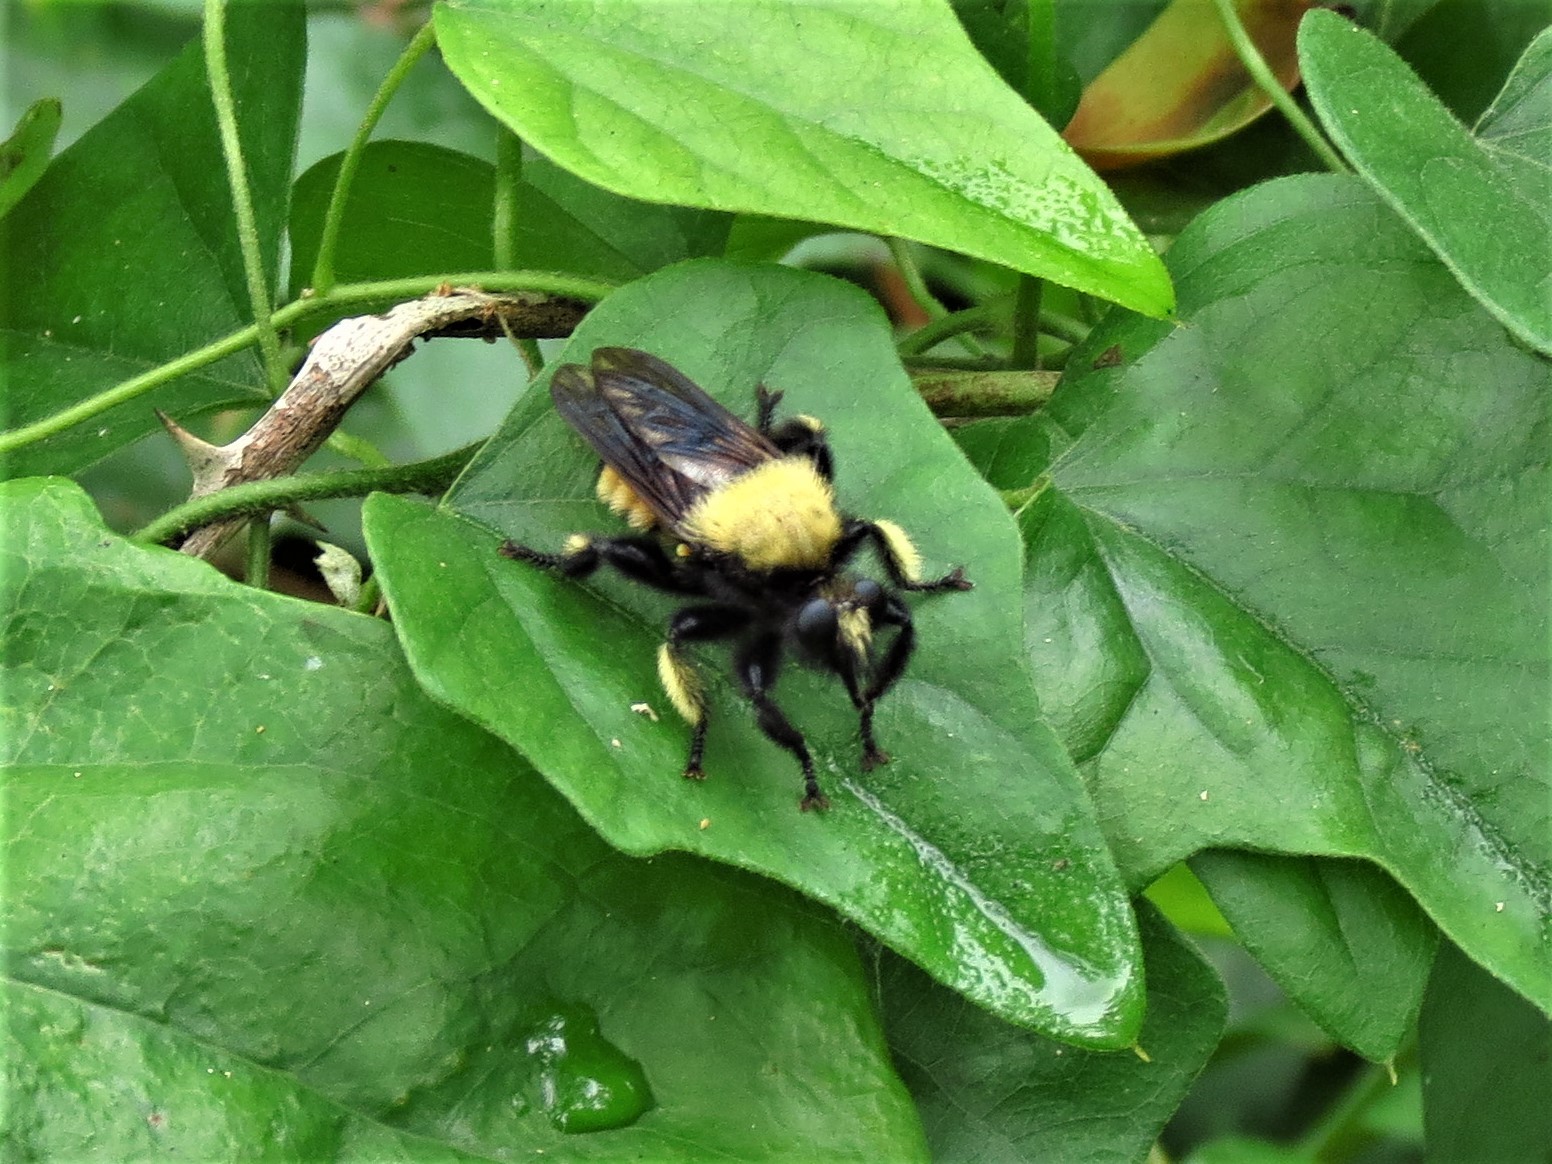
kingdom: Animalia
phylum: Arthropoda
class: Insecta
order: Diptera
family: Asilidae
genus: Laphria
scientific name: Laphria macquarti
